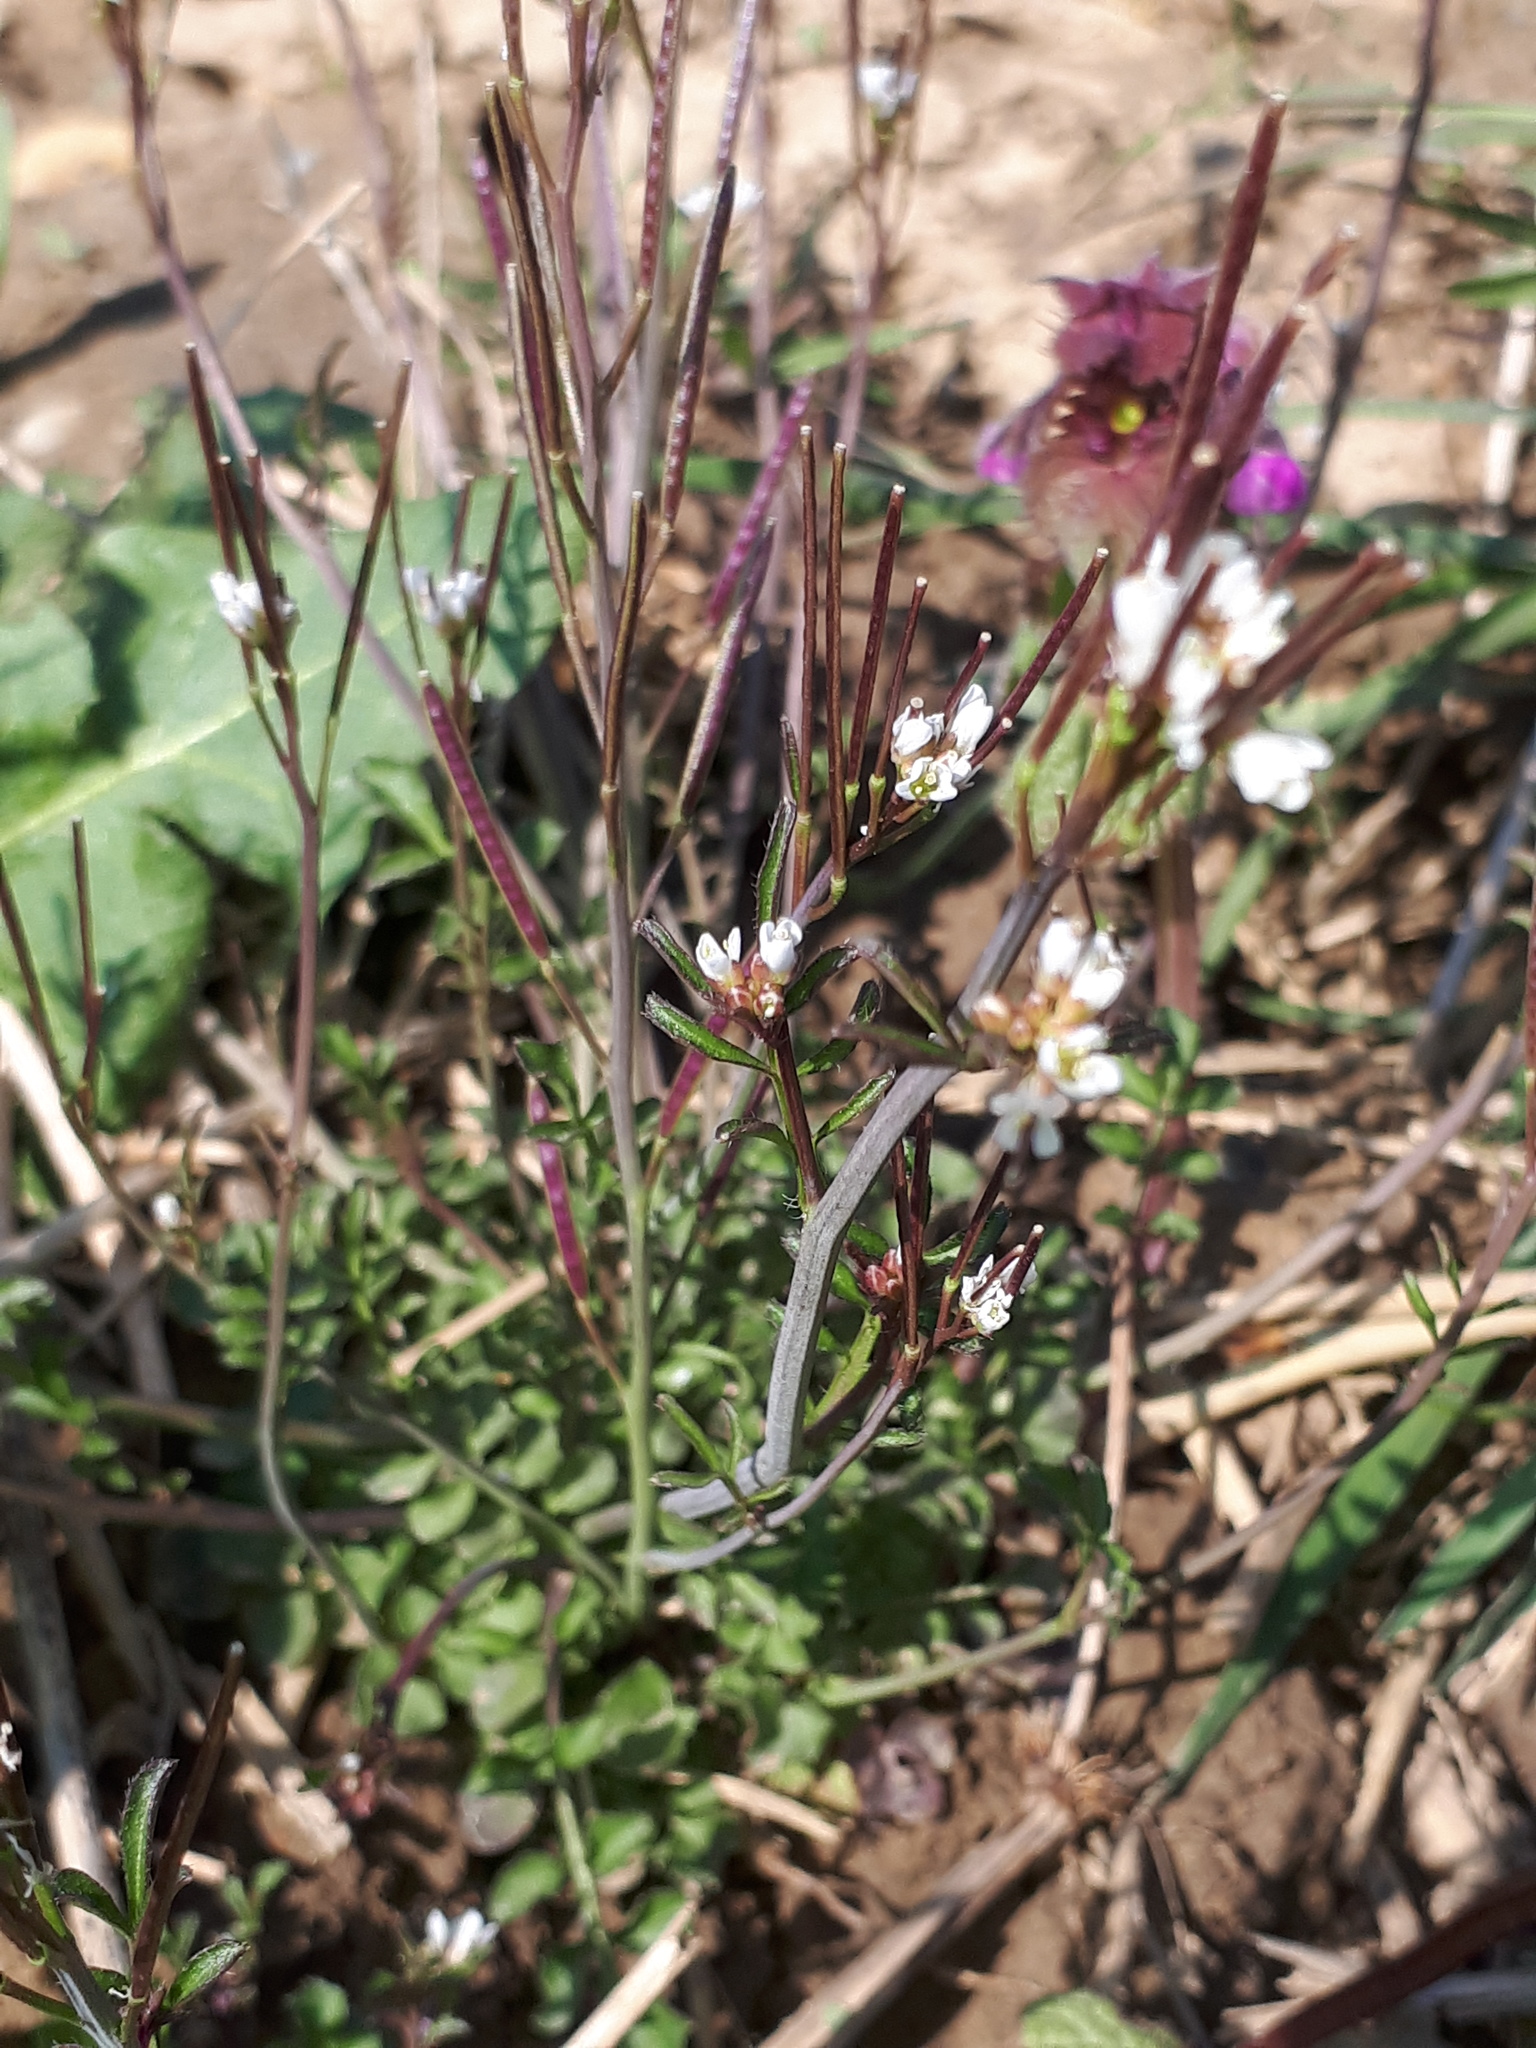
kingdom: Plantae
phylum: Tracheophyta
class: Magnoliopsida
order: Brassicales
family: Brassicaceae
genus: Cardamine
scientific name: Cardamine hirsuta
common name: Hairy bittercress
